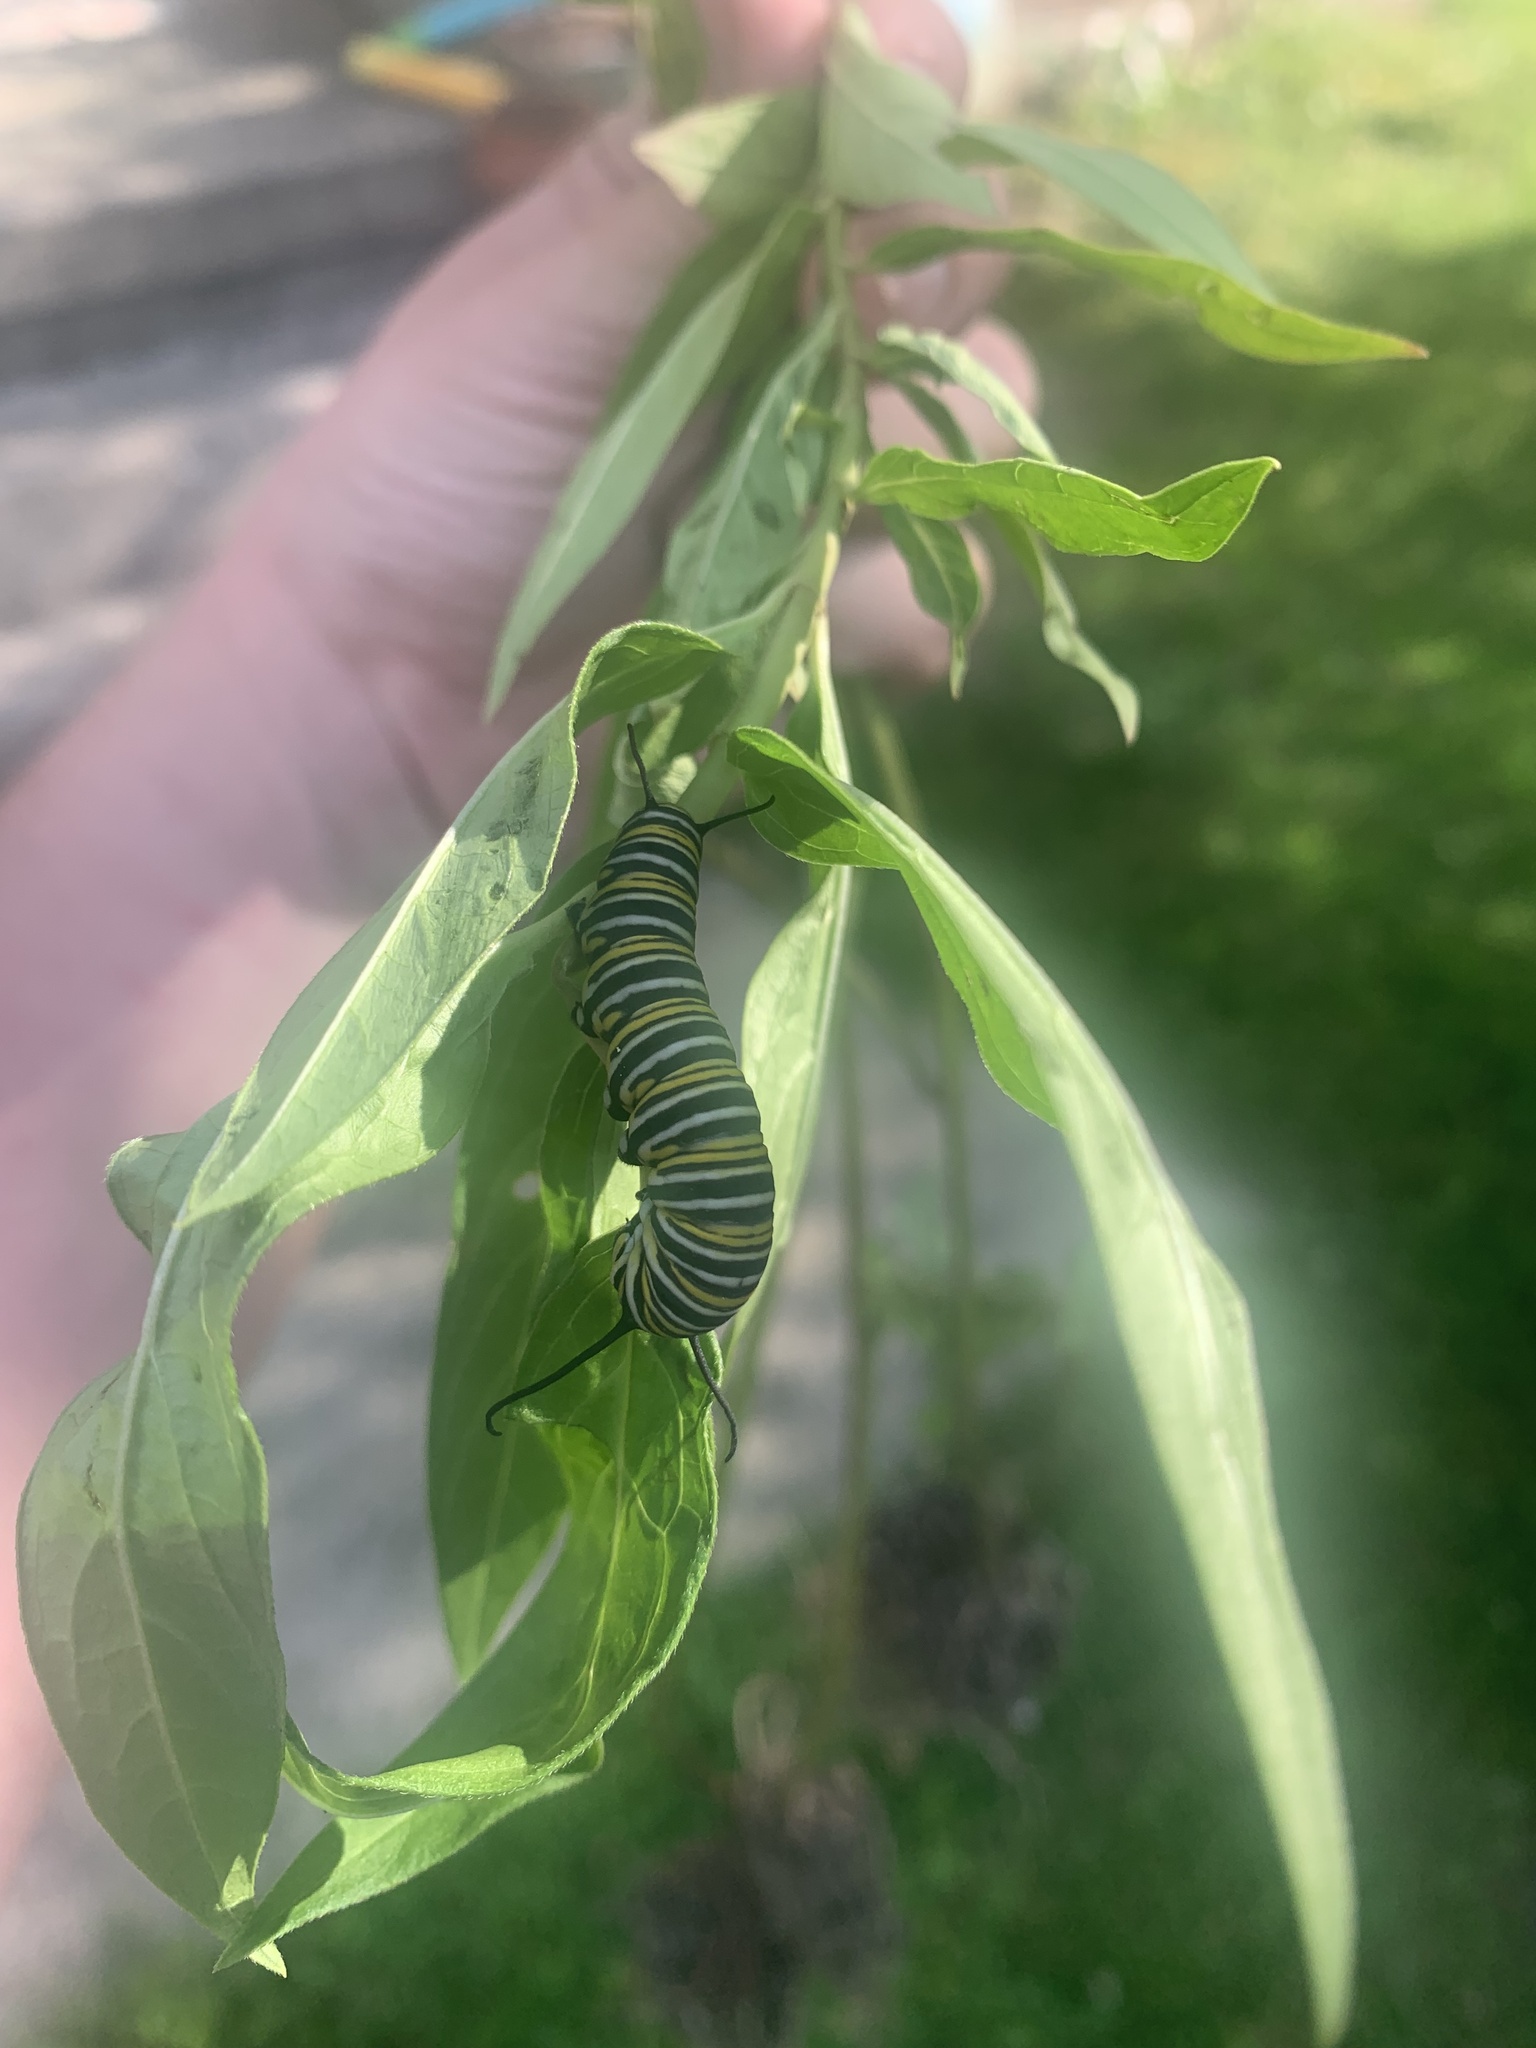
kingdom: Animalia
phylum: Arthropoda
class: Insecta
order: Lepidoptera
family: Nymphalidae
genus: Danaus
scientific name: Danaus plexippus
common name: Monarch
